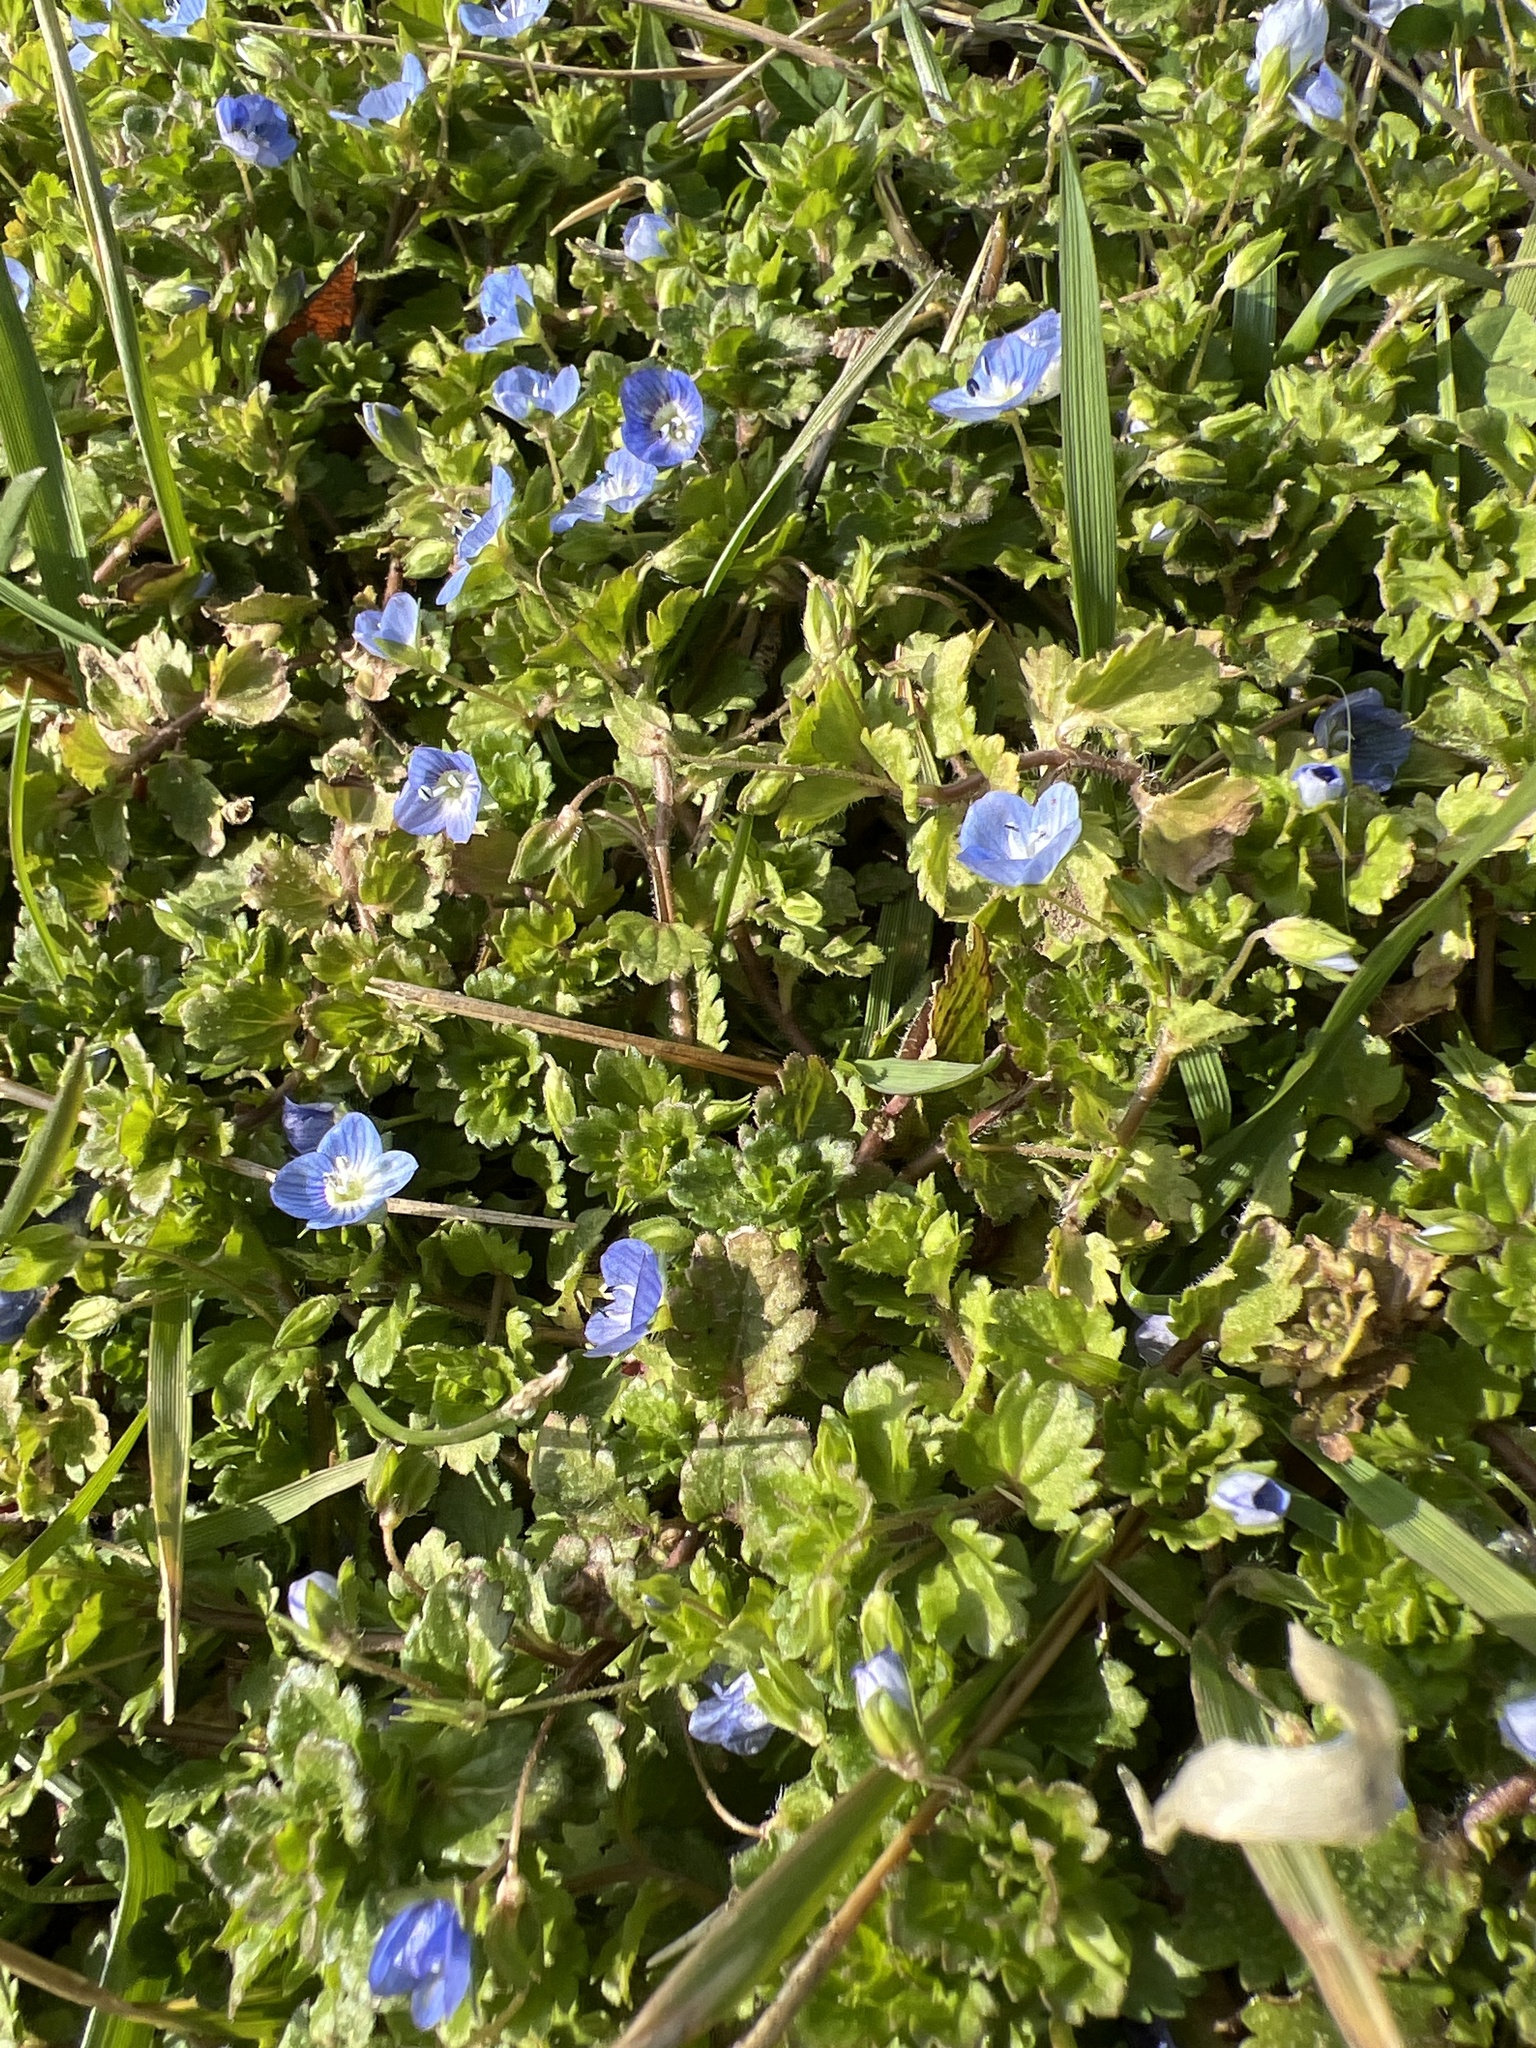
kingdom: Plantae
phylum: Tracheophyta
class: Magnoliopsida
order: Lamiales
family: Plantaginaceae
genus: Veronica
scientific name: Veronica persica
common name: Common field-speedwell
